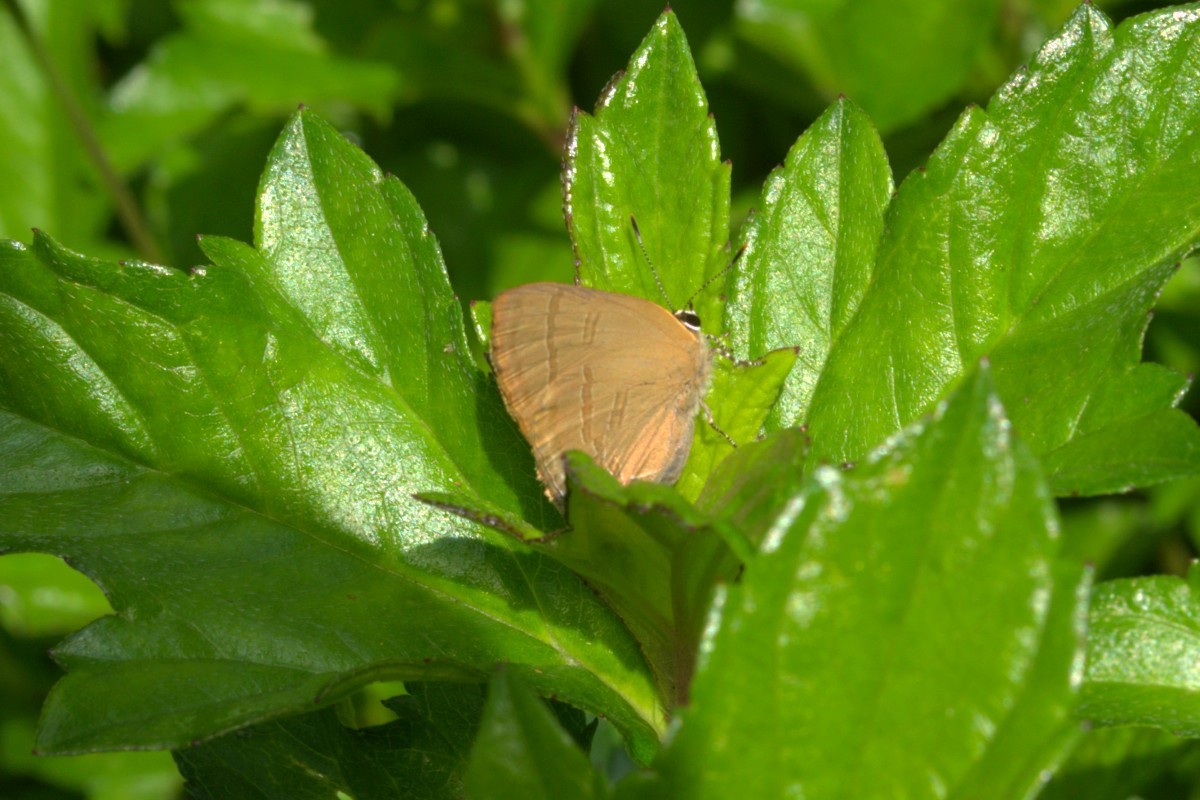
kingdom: Animalia
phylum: Arthropoda
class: Insecta
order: Lepidoptera
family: Lycaenidae
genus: Rapala
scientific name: Rapala manea
